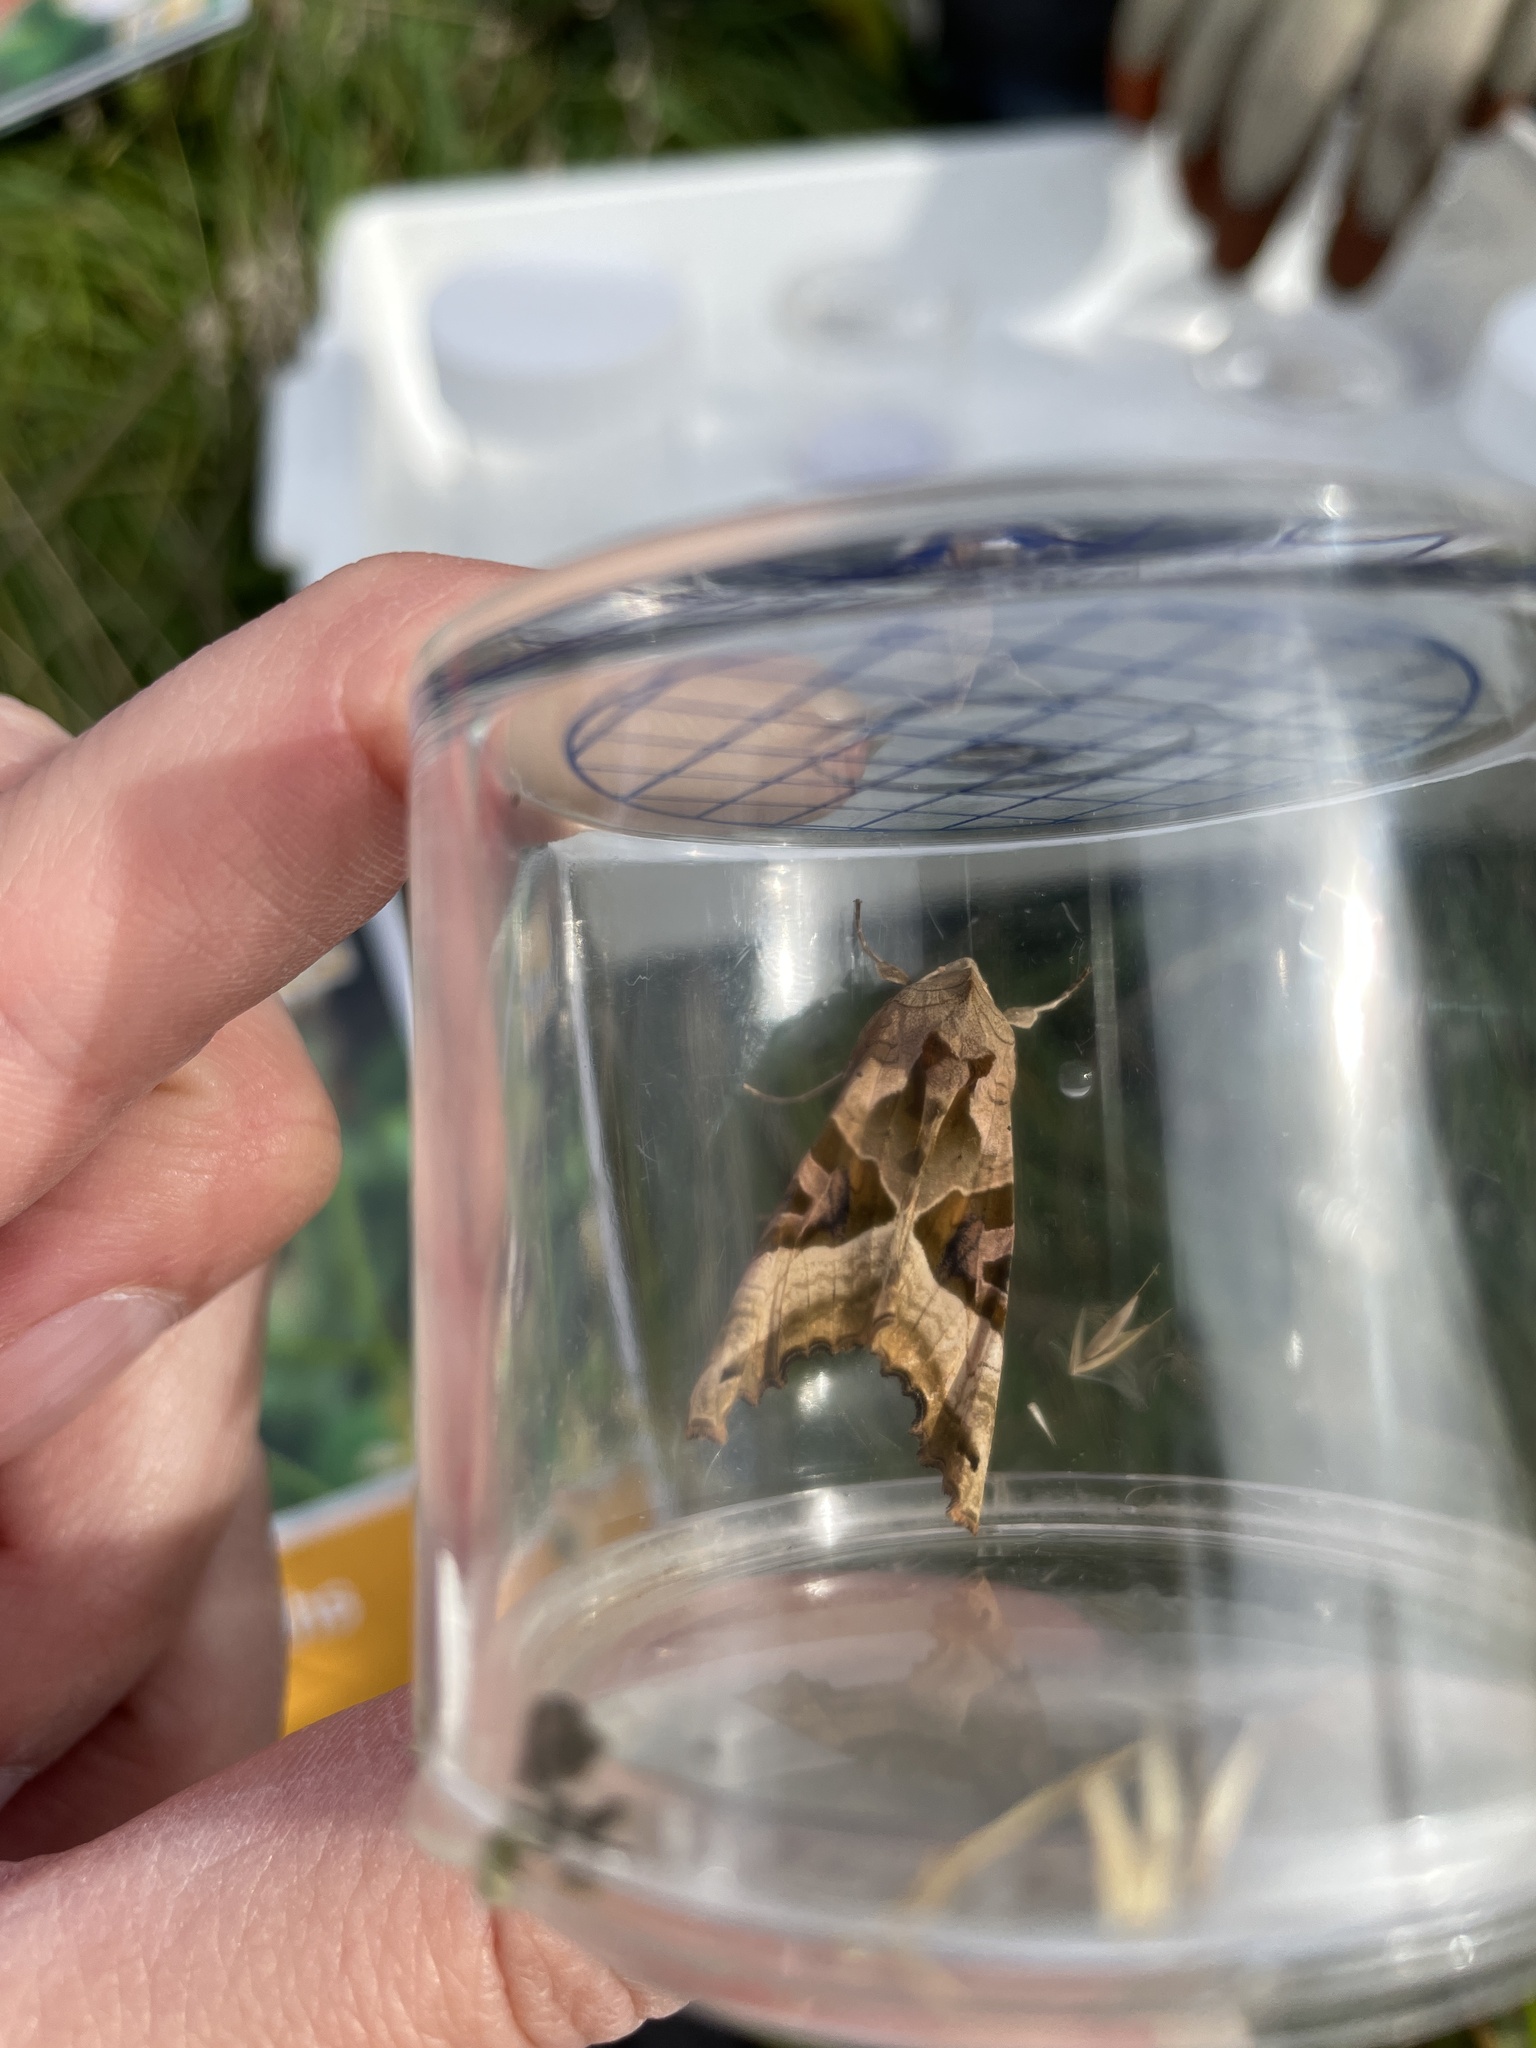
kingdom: Animalia
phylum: Arthropoda
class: Insecta
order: Lepidoptera
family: Noctuidae
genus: Phlogophora
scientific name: Phlogophora meticulosa
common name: Angle shades
